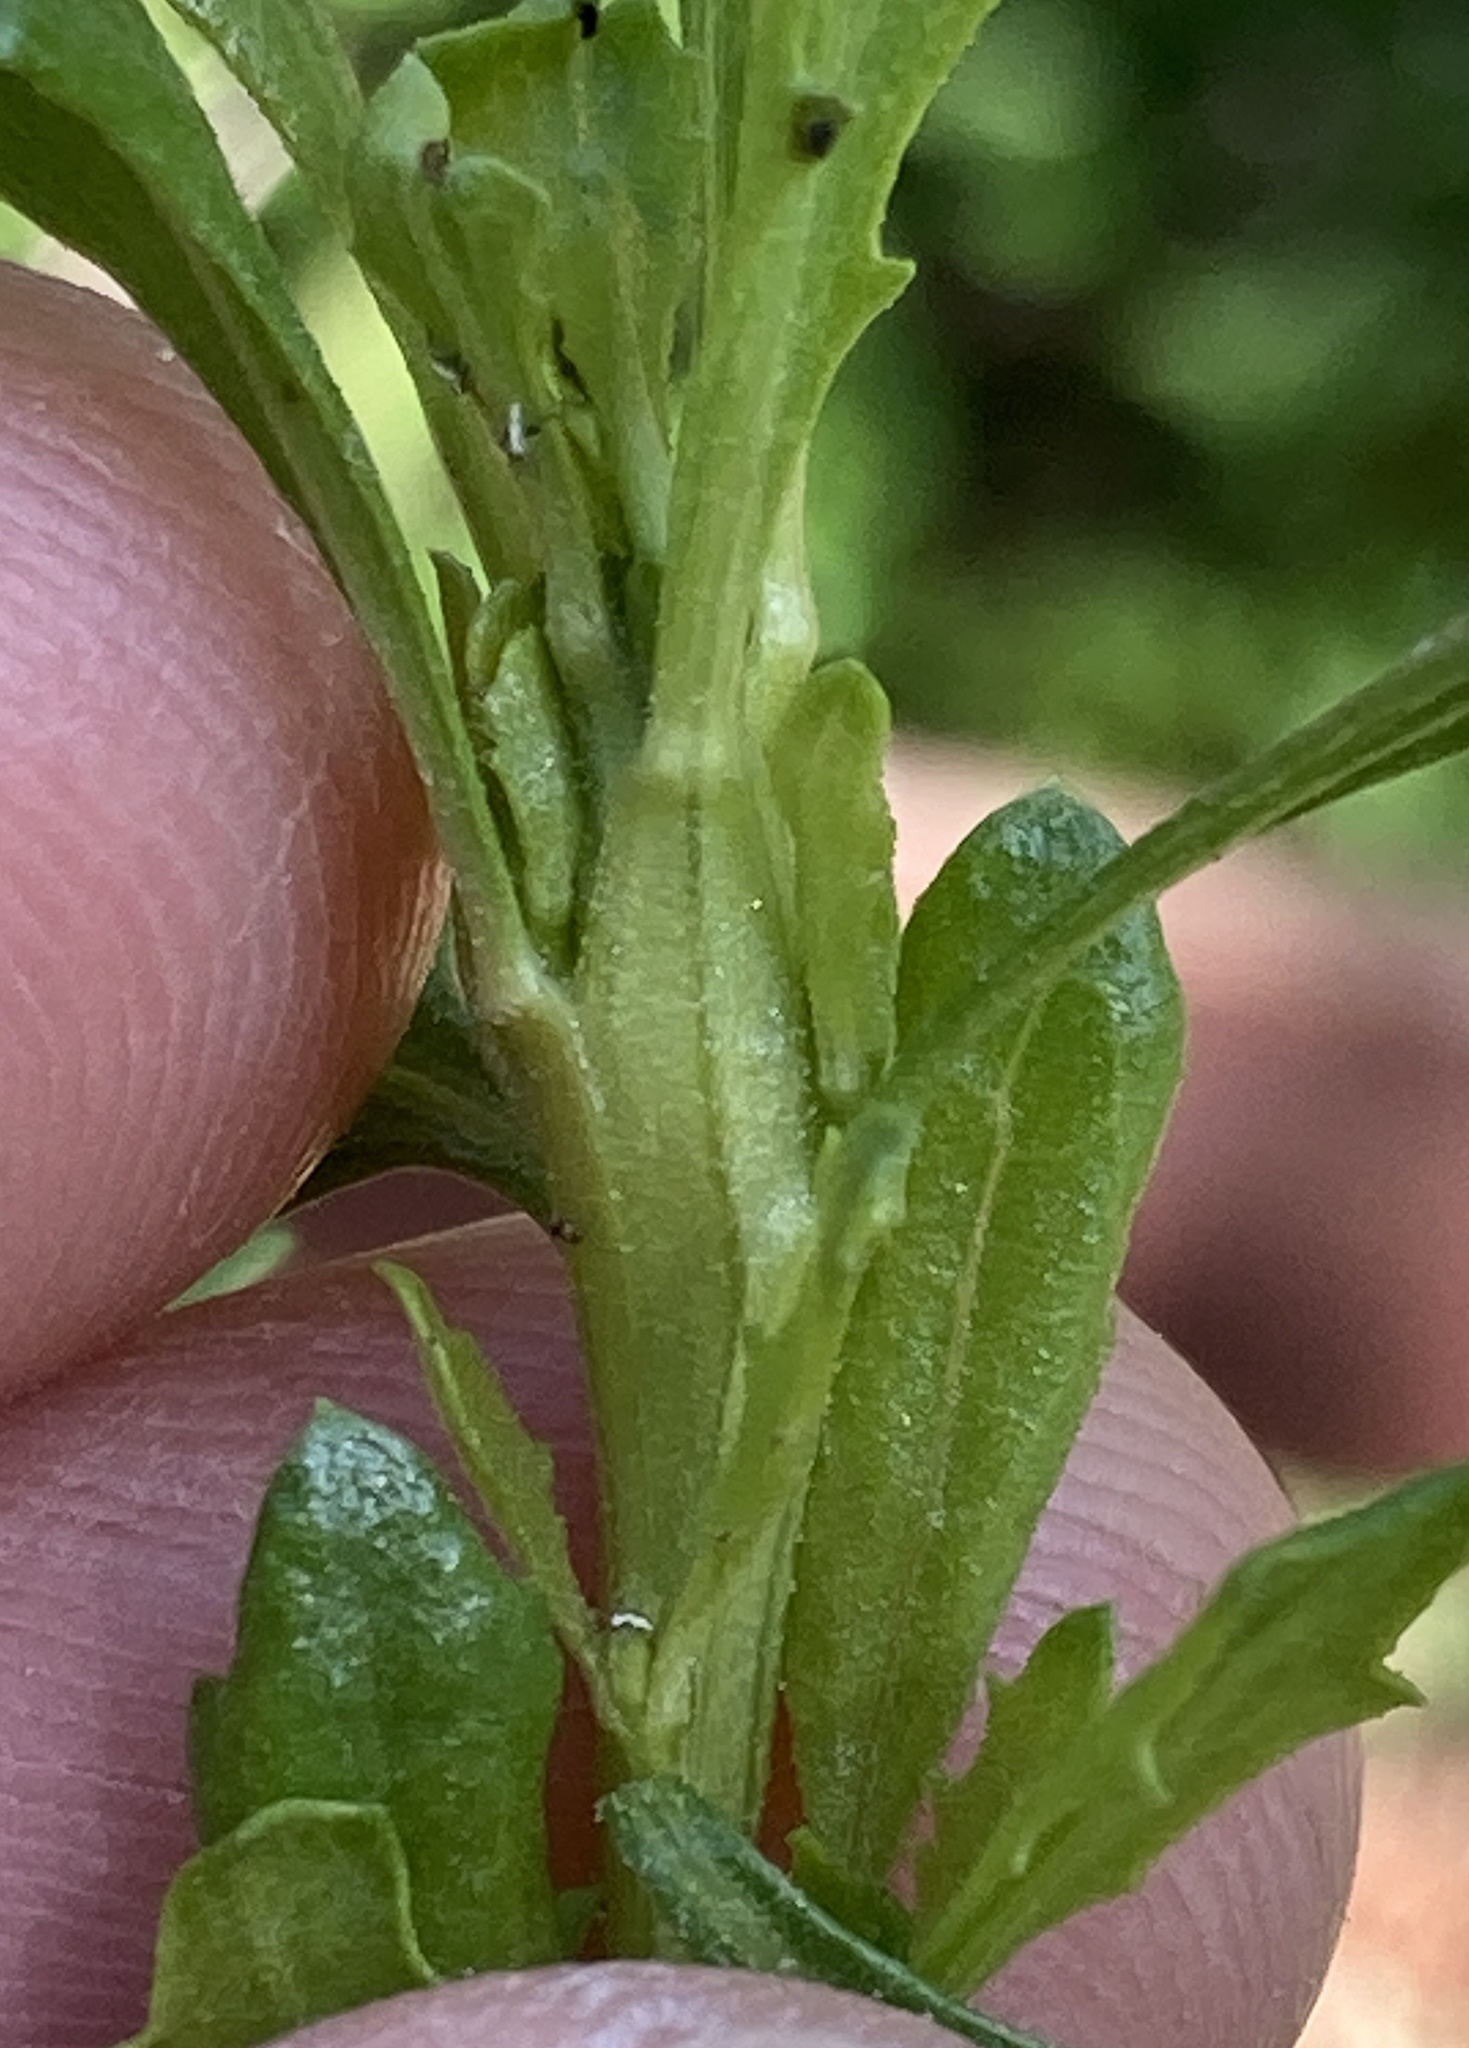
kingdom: Animalia
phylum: Arthropoda
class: Insecta
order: Lepidoptera
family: Gelechiidae
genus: Gnorimoschema
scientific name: Gnorimoschema baccharisella
